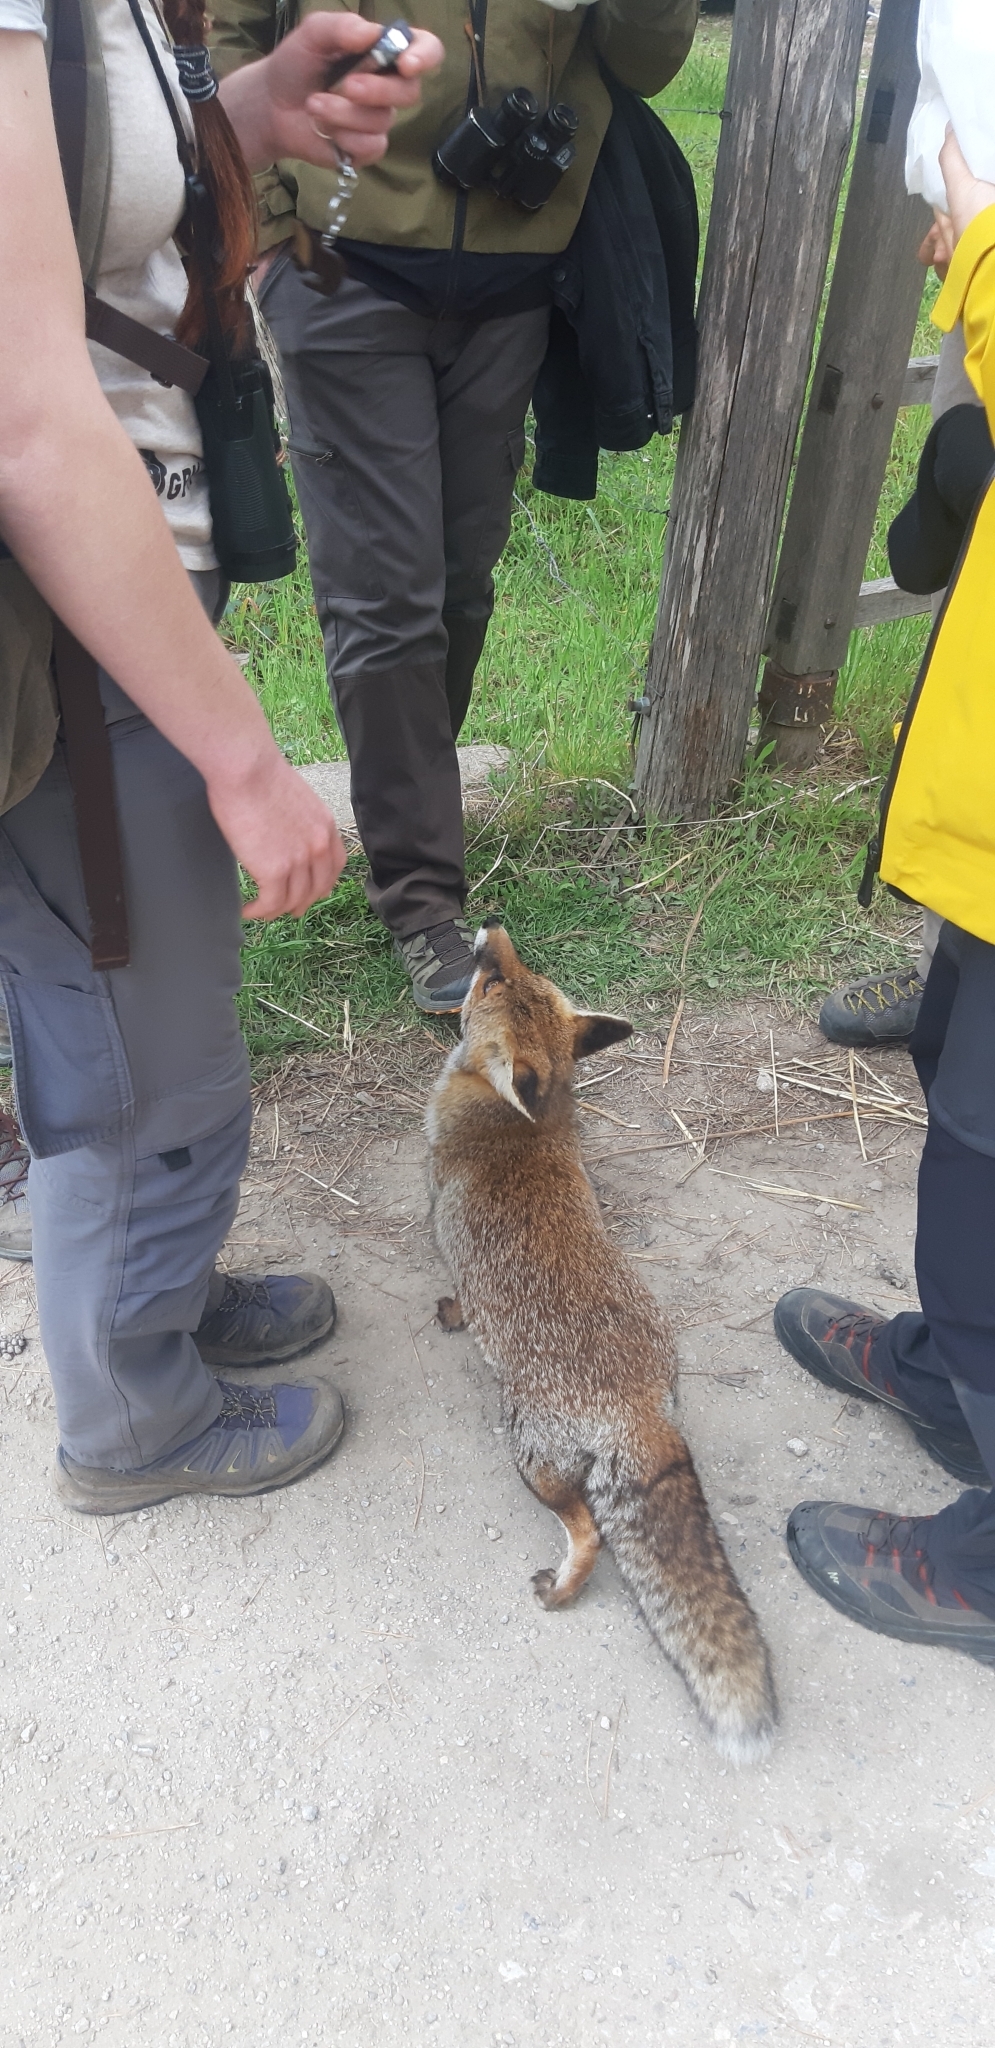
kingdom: Animalia
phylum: Chordata
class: Mammalia
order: Carnivora
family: Canidae
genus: Vulpes
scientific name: Vulpes vulpes
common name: Red fox
